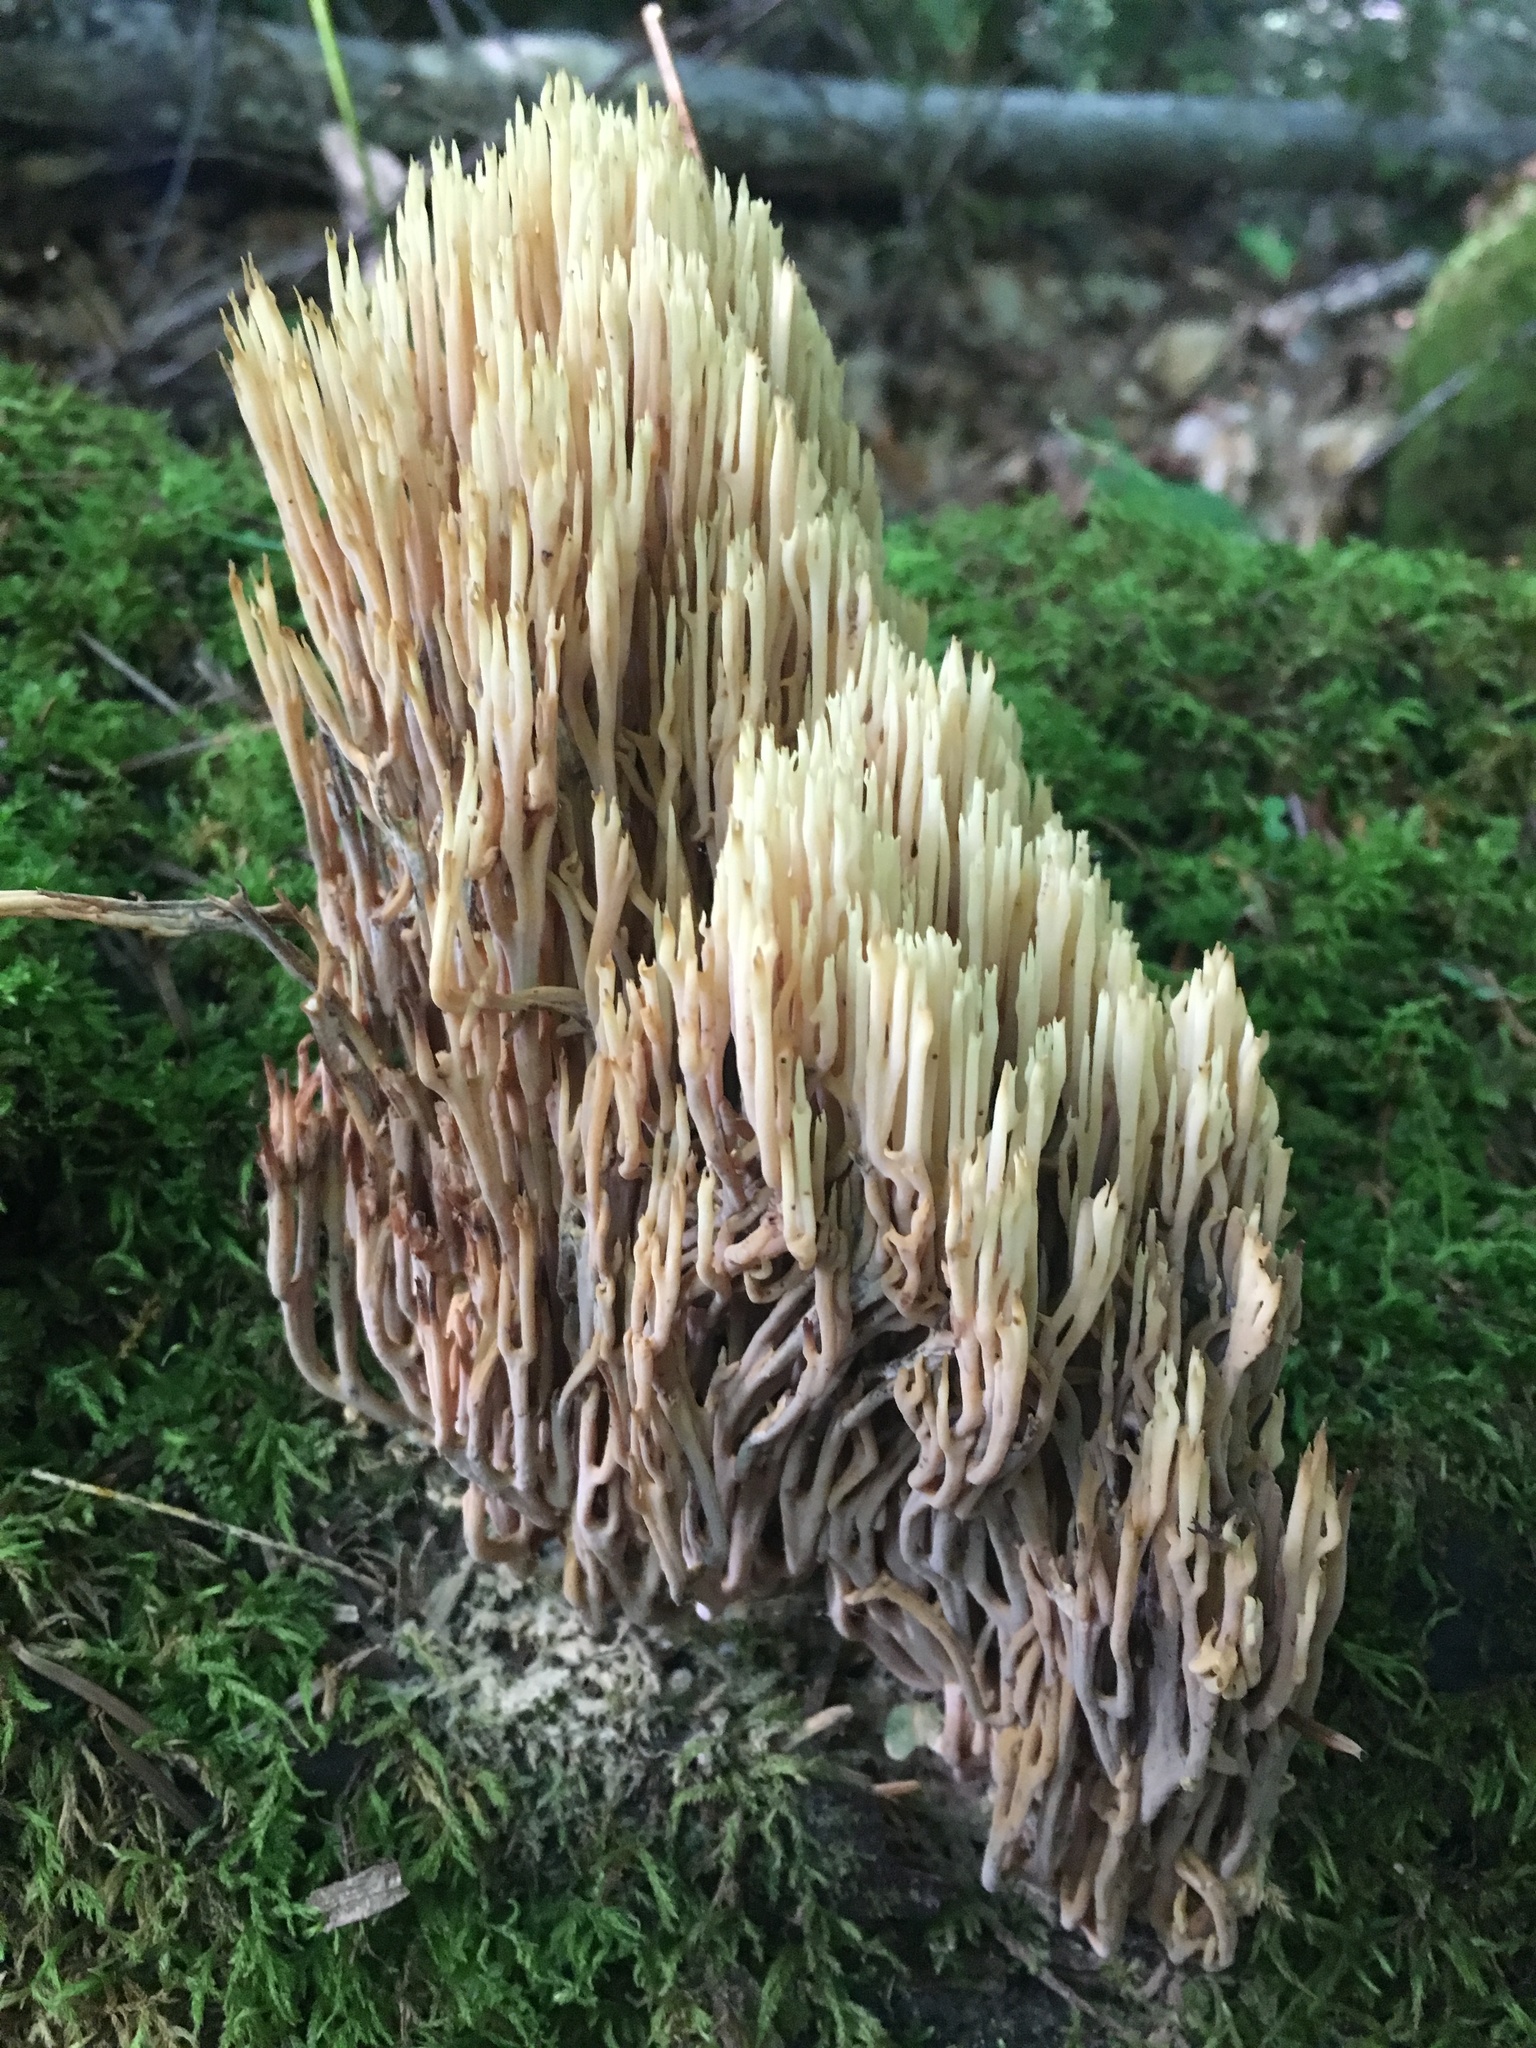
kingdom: Fungi
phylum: Basidiomycota
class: Agaricomycetes
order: Gomphales
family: Gomphaceae
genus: Ramaria
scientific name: Ramaria stricta
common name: Upright coral
